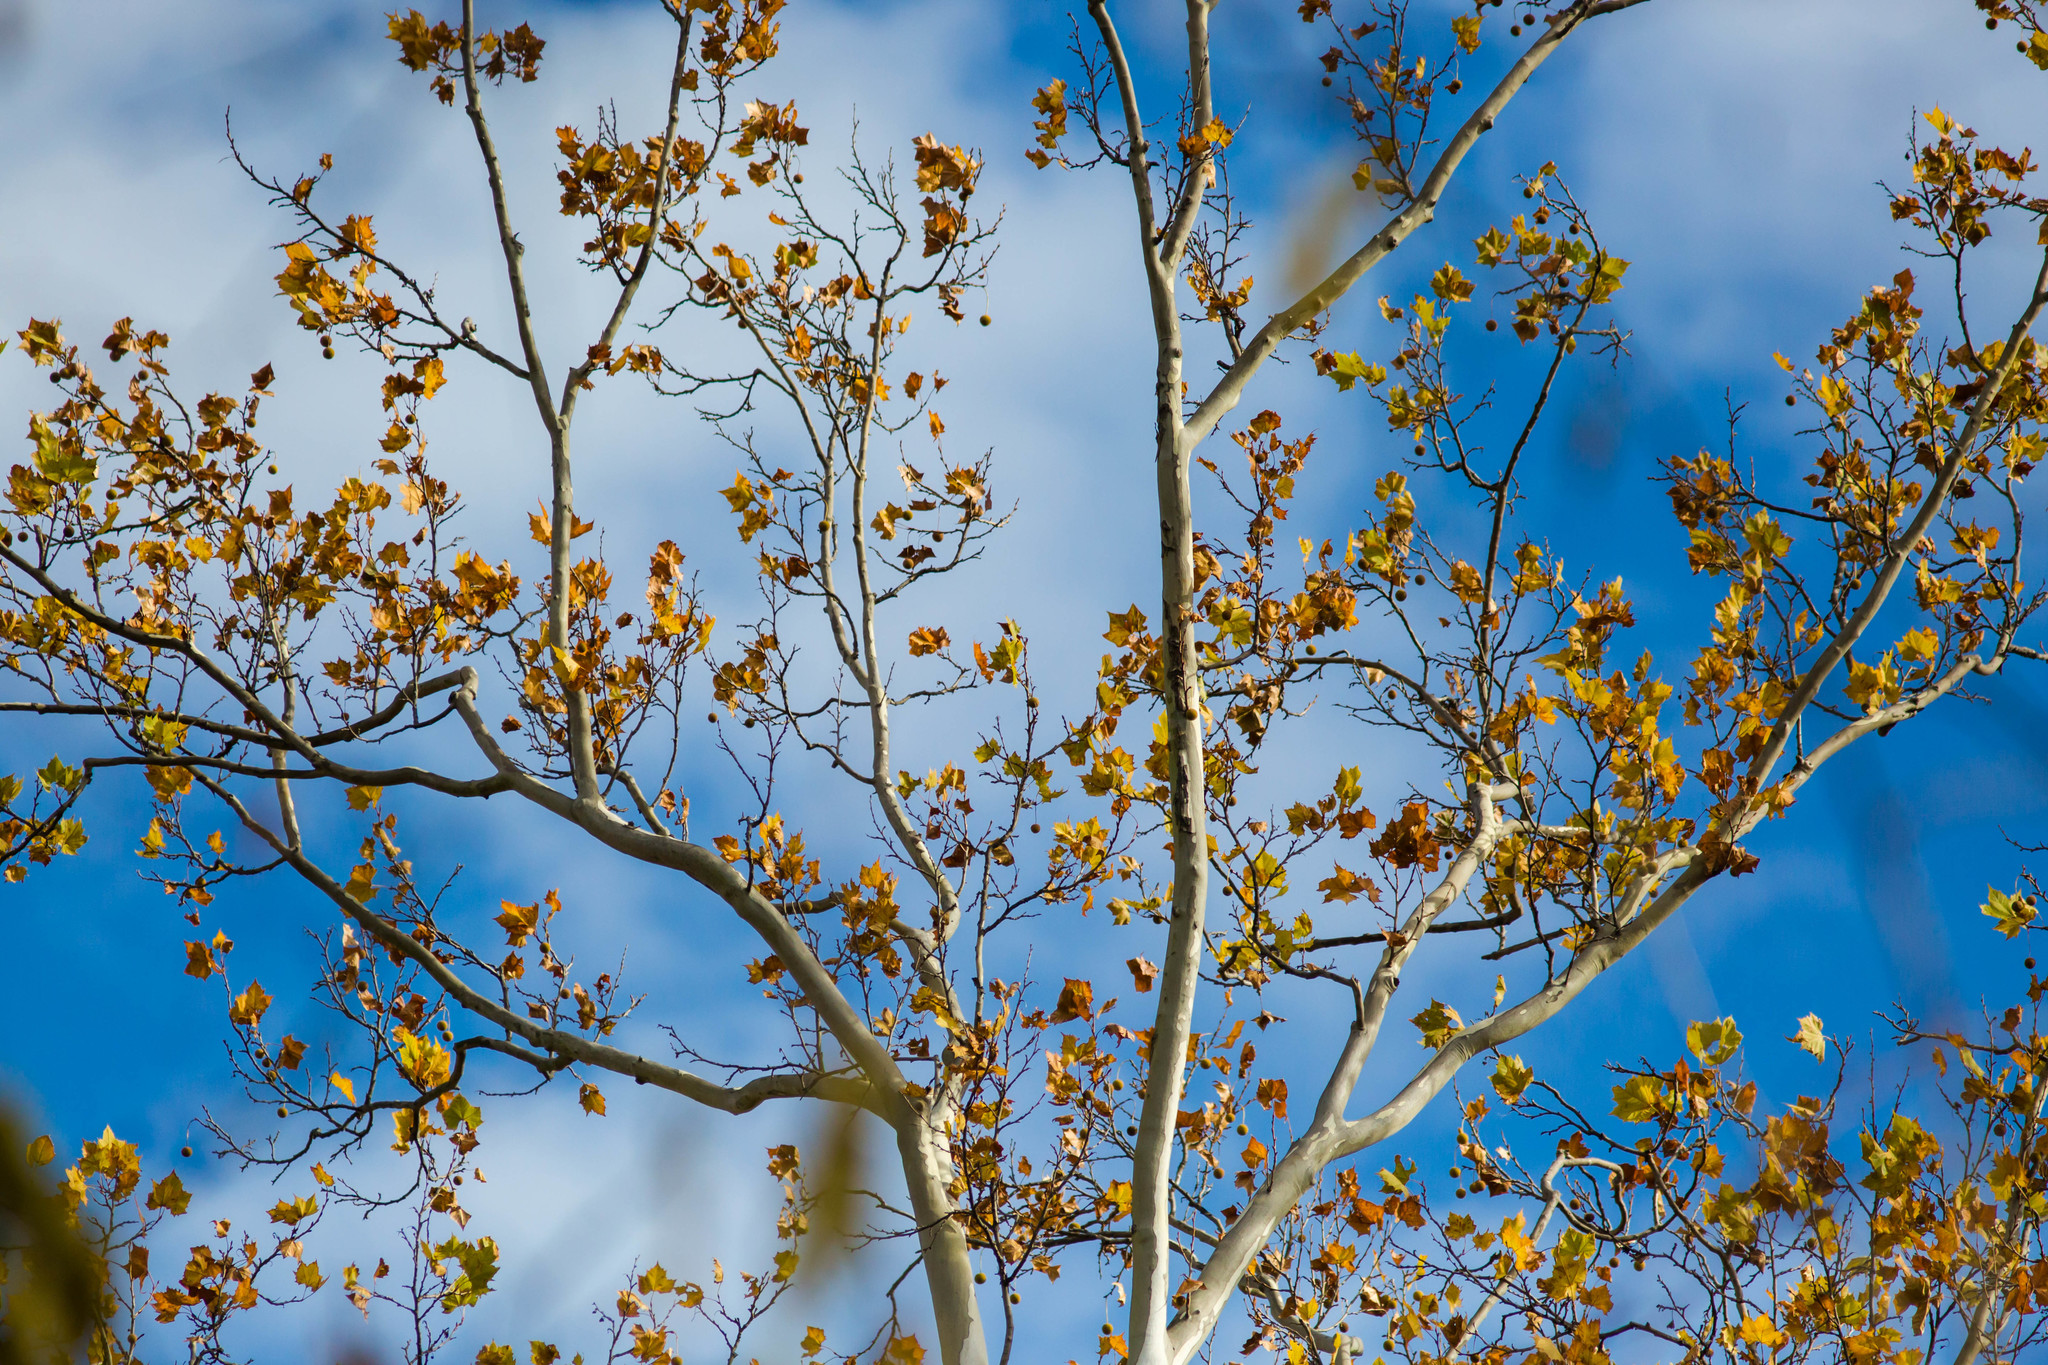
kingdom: Plantae
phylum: Tracheophyta
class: Magnoliopsida
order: Proteales
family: Platanaceae
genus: Platanus
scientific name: Platanus occidentalis
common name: American sycamore
